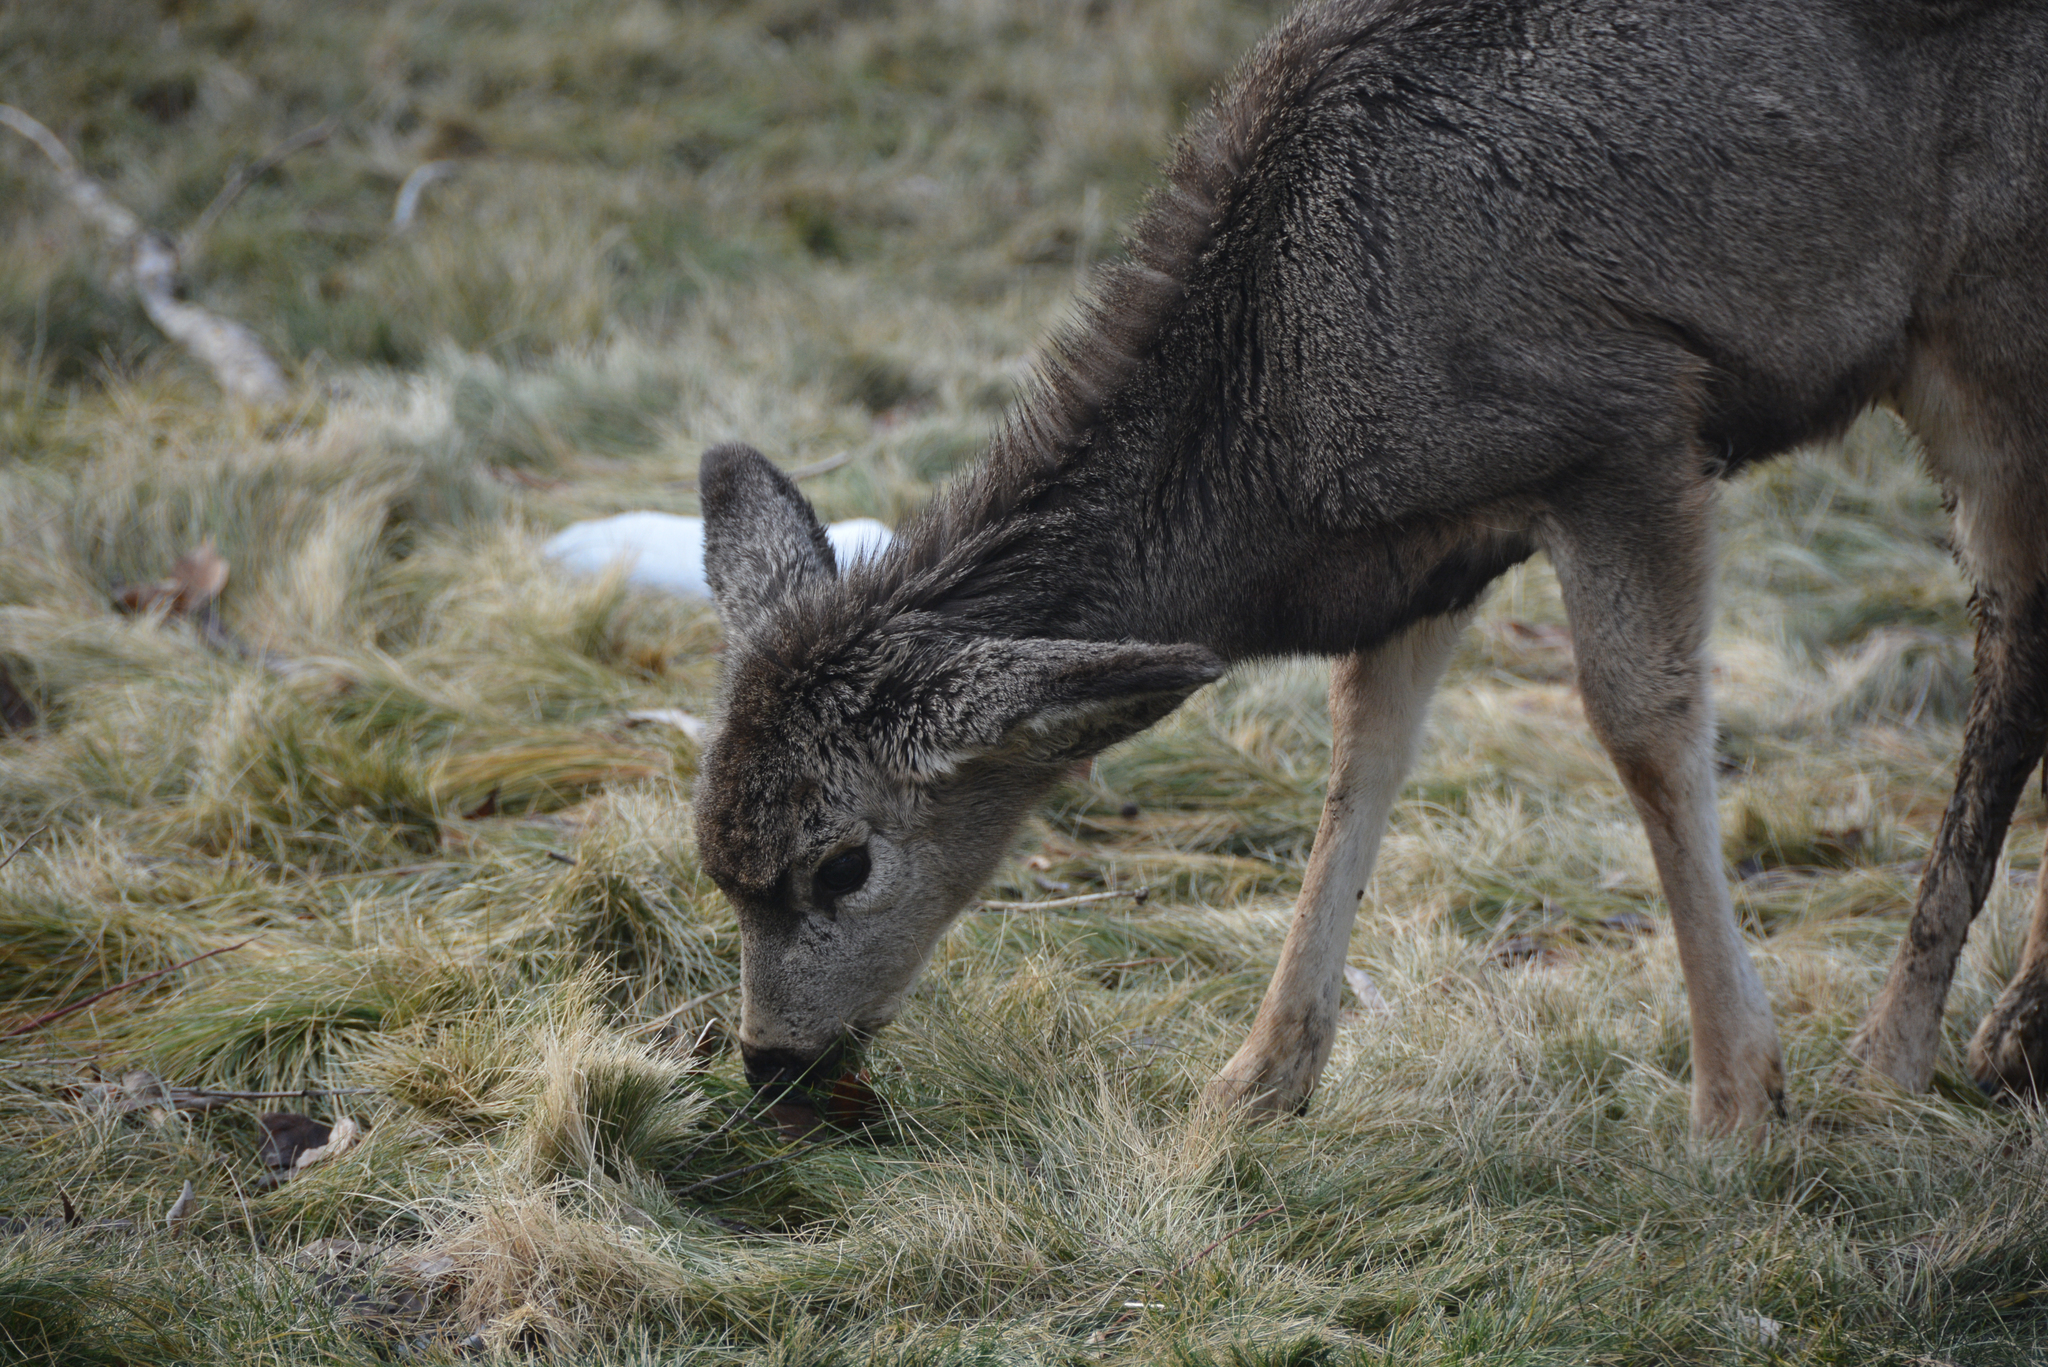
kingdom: Animalia
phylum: Chordata
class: Mammalia
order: Artiodactyla
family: Cervidae
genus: Odocoileus
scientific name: Odocoileus hemionus
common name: Mule deer
